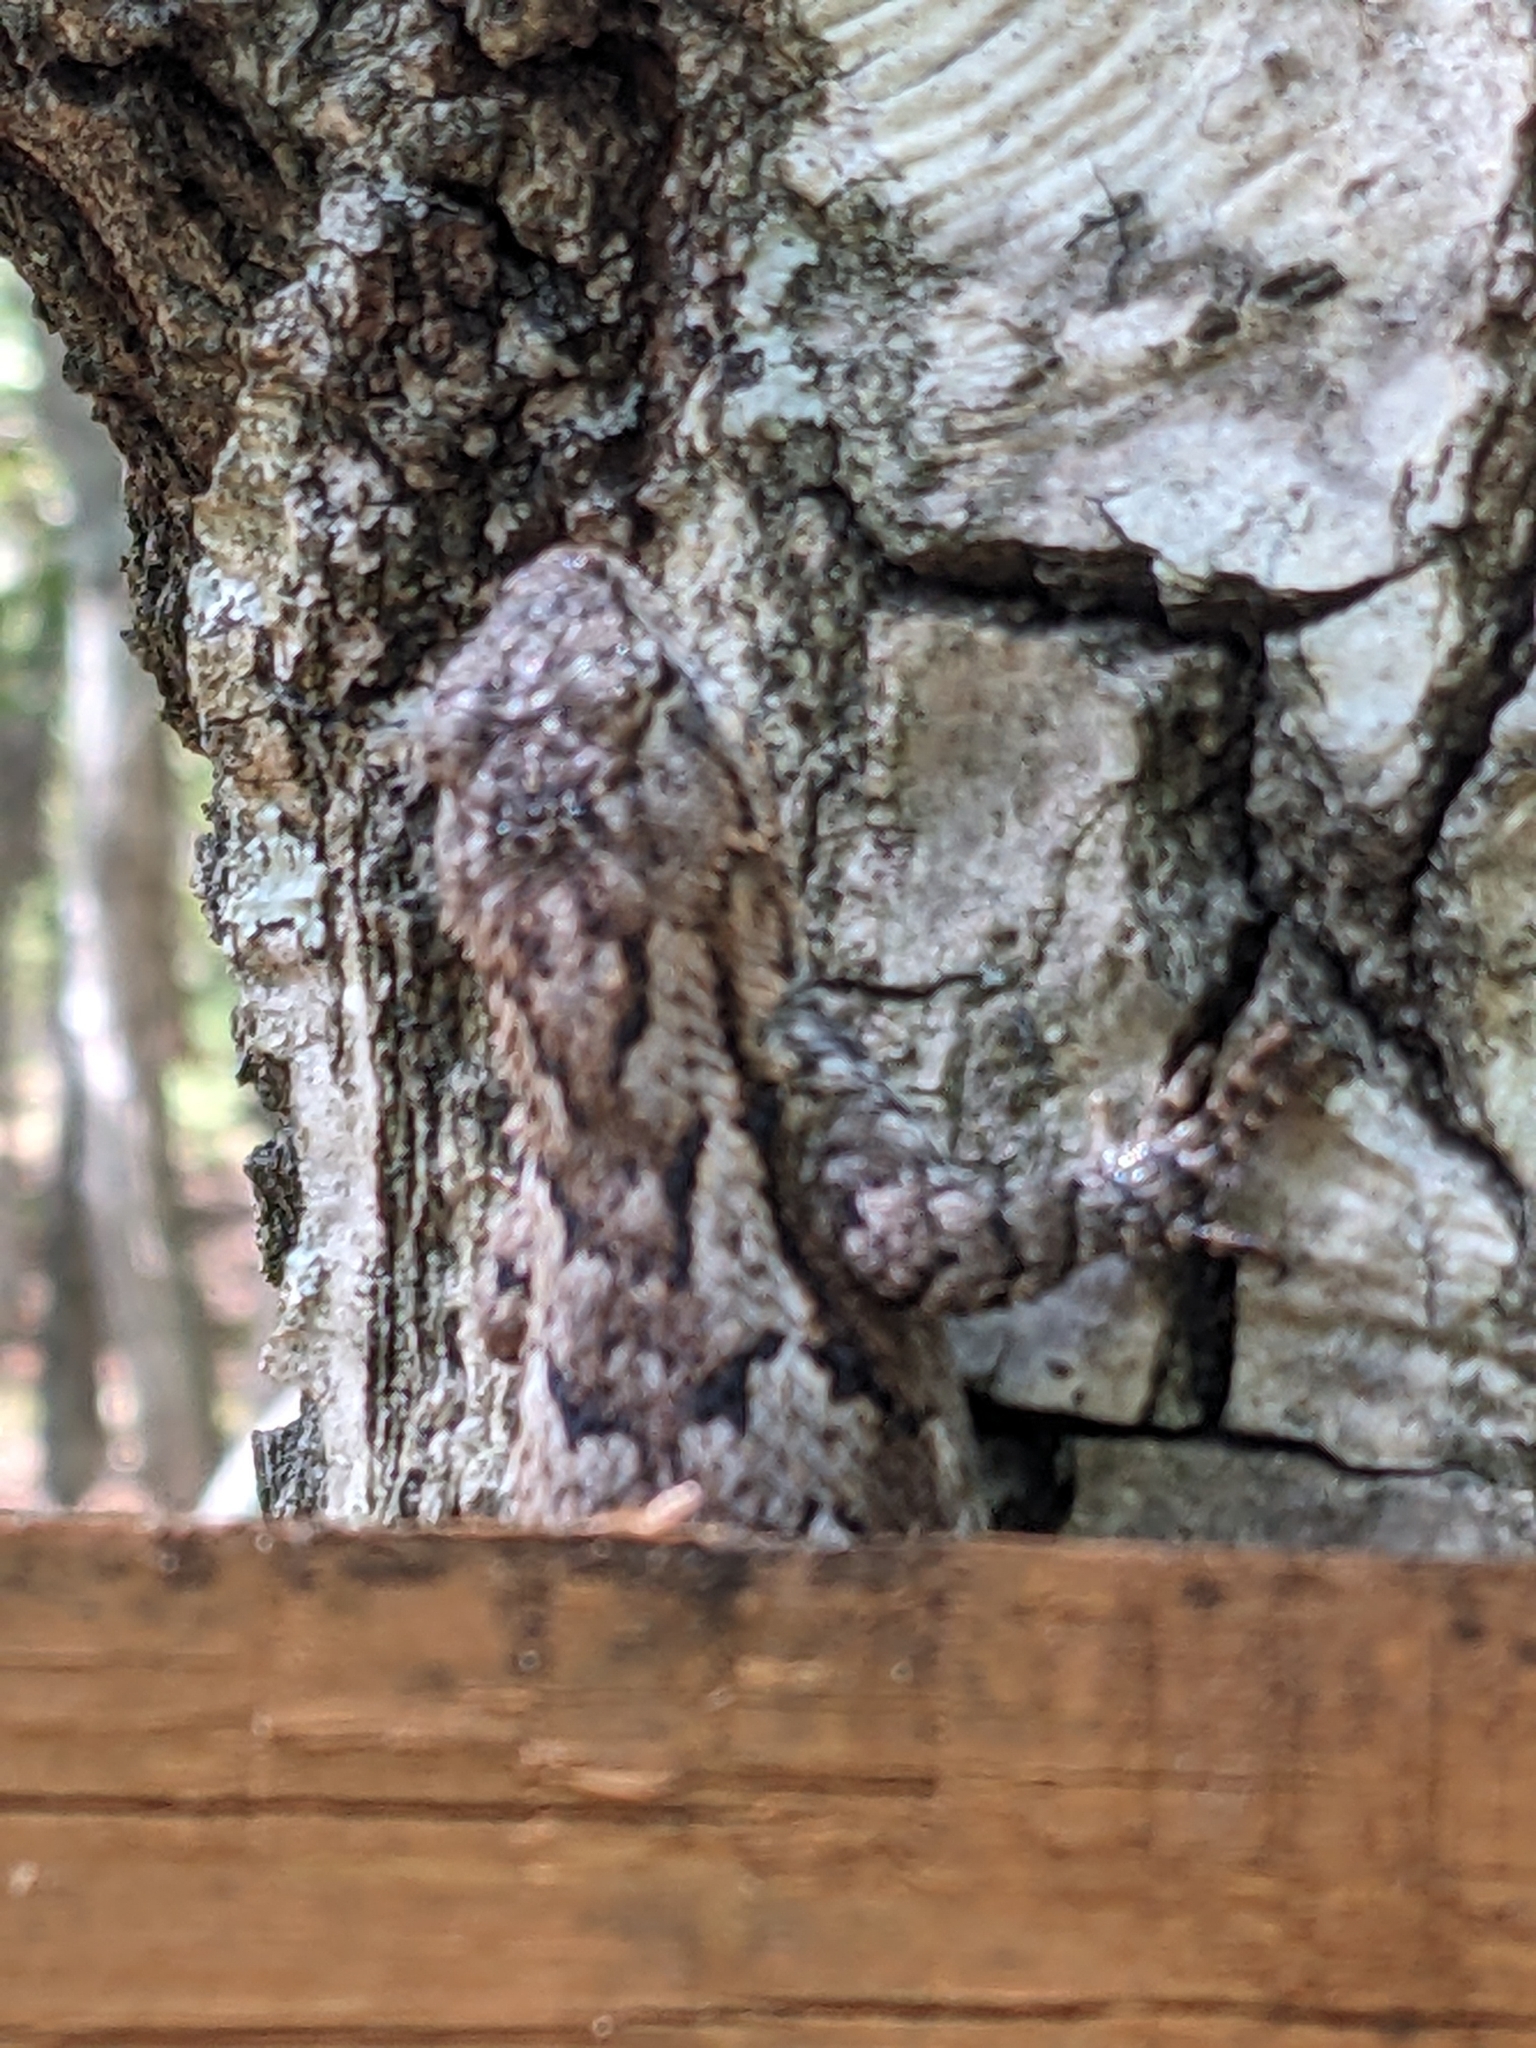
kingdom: Animalia
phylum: Chordata
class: Squamata
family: Phrynosomatidae
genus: Sceloporus
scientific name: Sceloporus undulatus
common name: Eastern fence lizard
